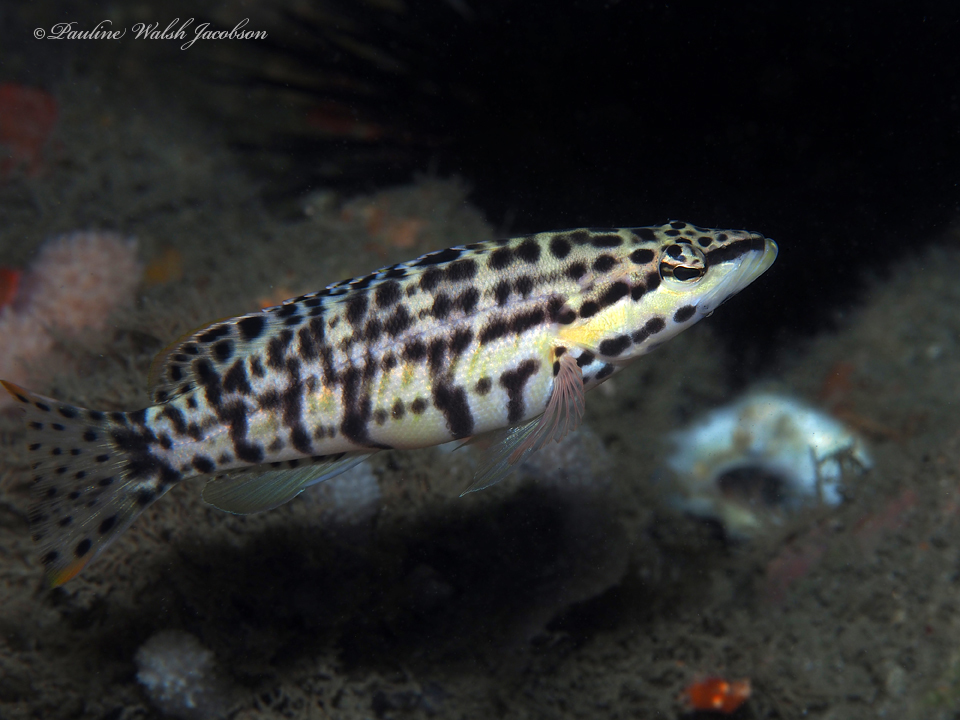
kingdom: Animalia
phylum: Chordata
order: Perciformes
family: Serranidae
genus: Serranus
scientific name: Serranus tigrinus
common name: Harlequin bass
